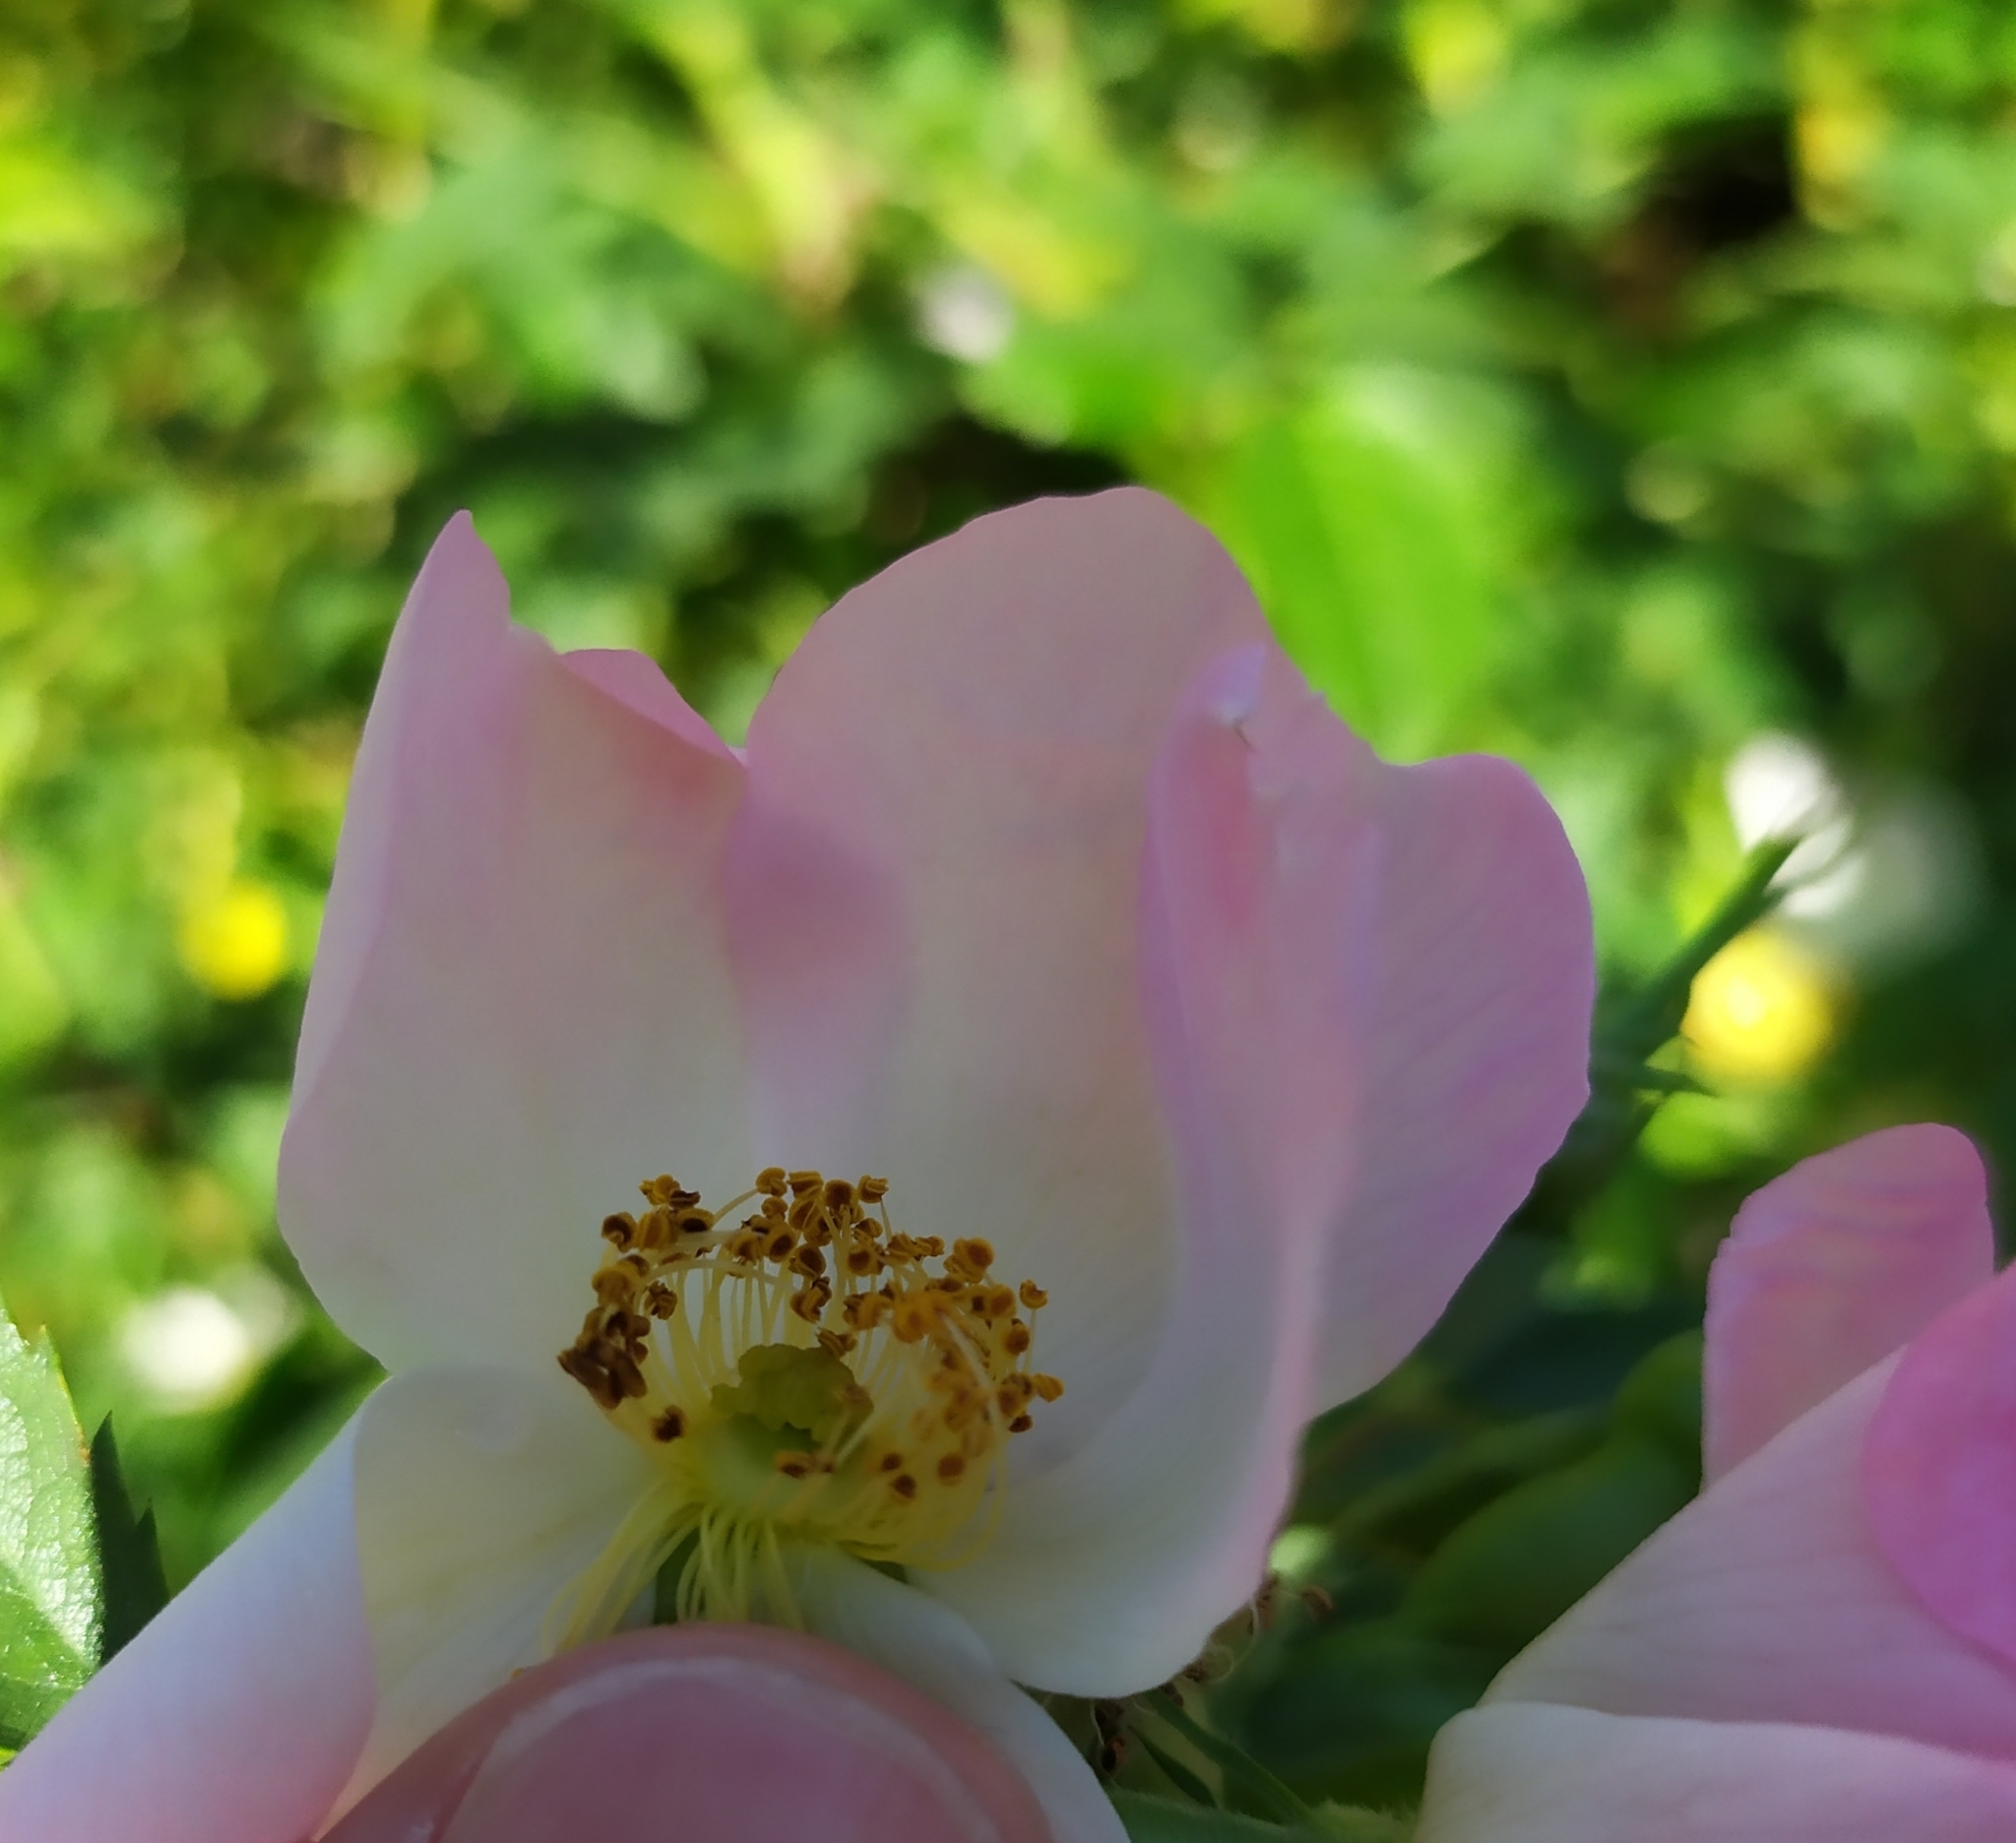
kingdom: Plantae
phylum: Tracheophyta
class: Magnoliopsida
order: Rosales
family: Rosaceae
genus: Rosa
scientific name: Rosa canina
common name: Dog rose
